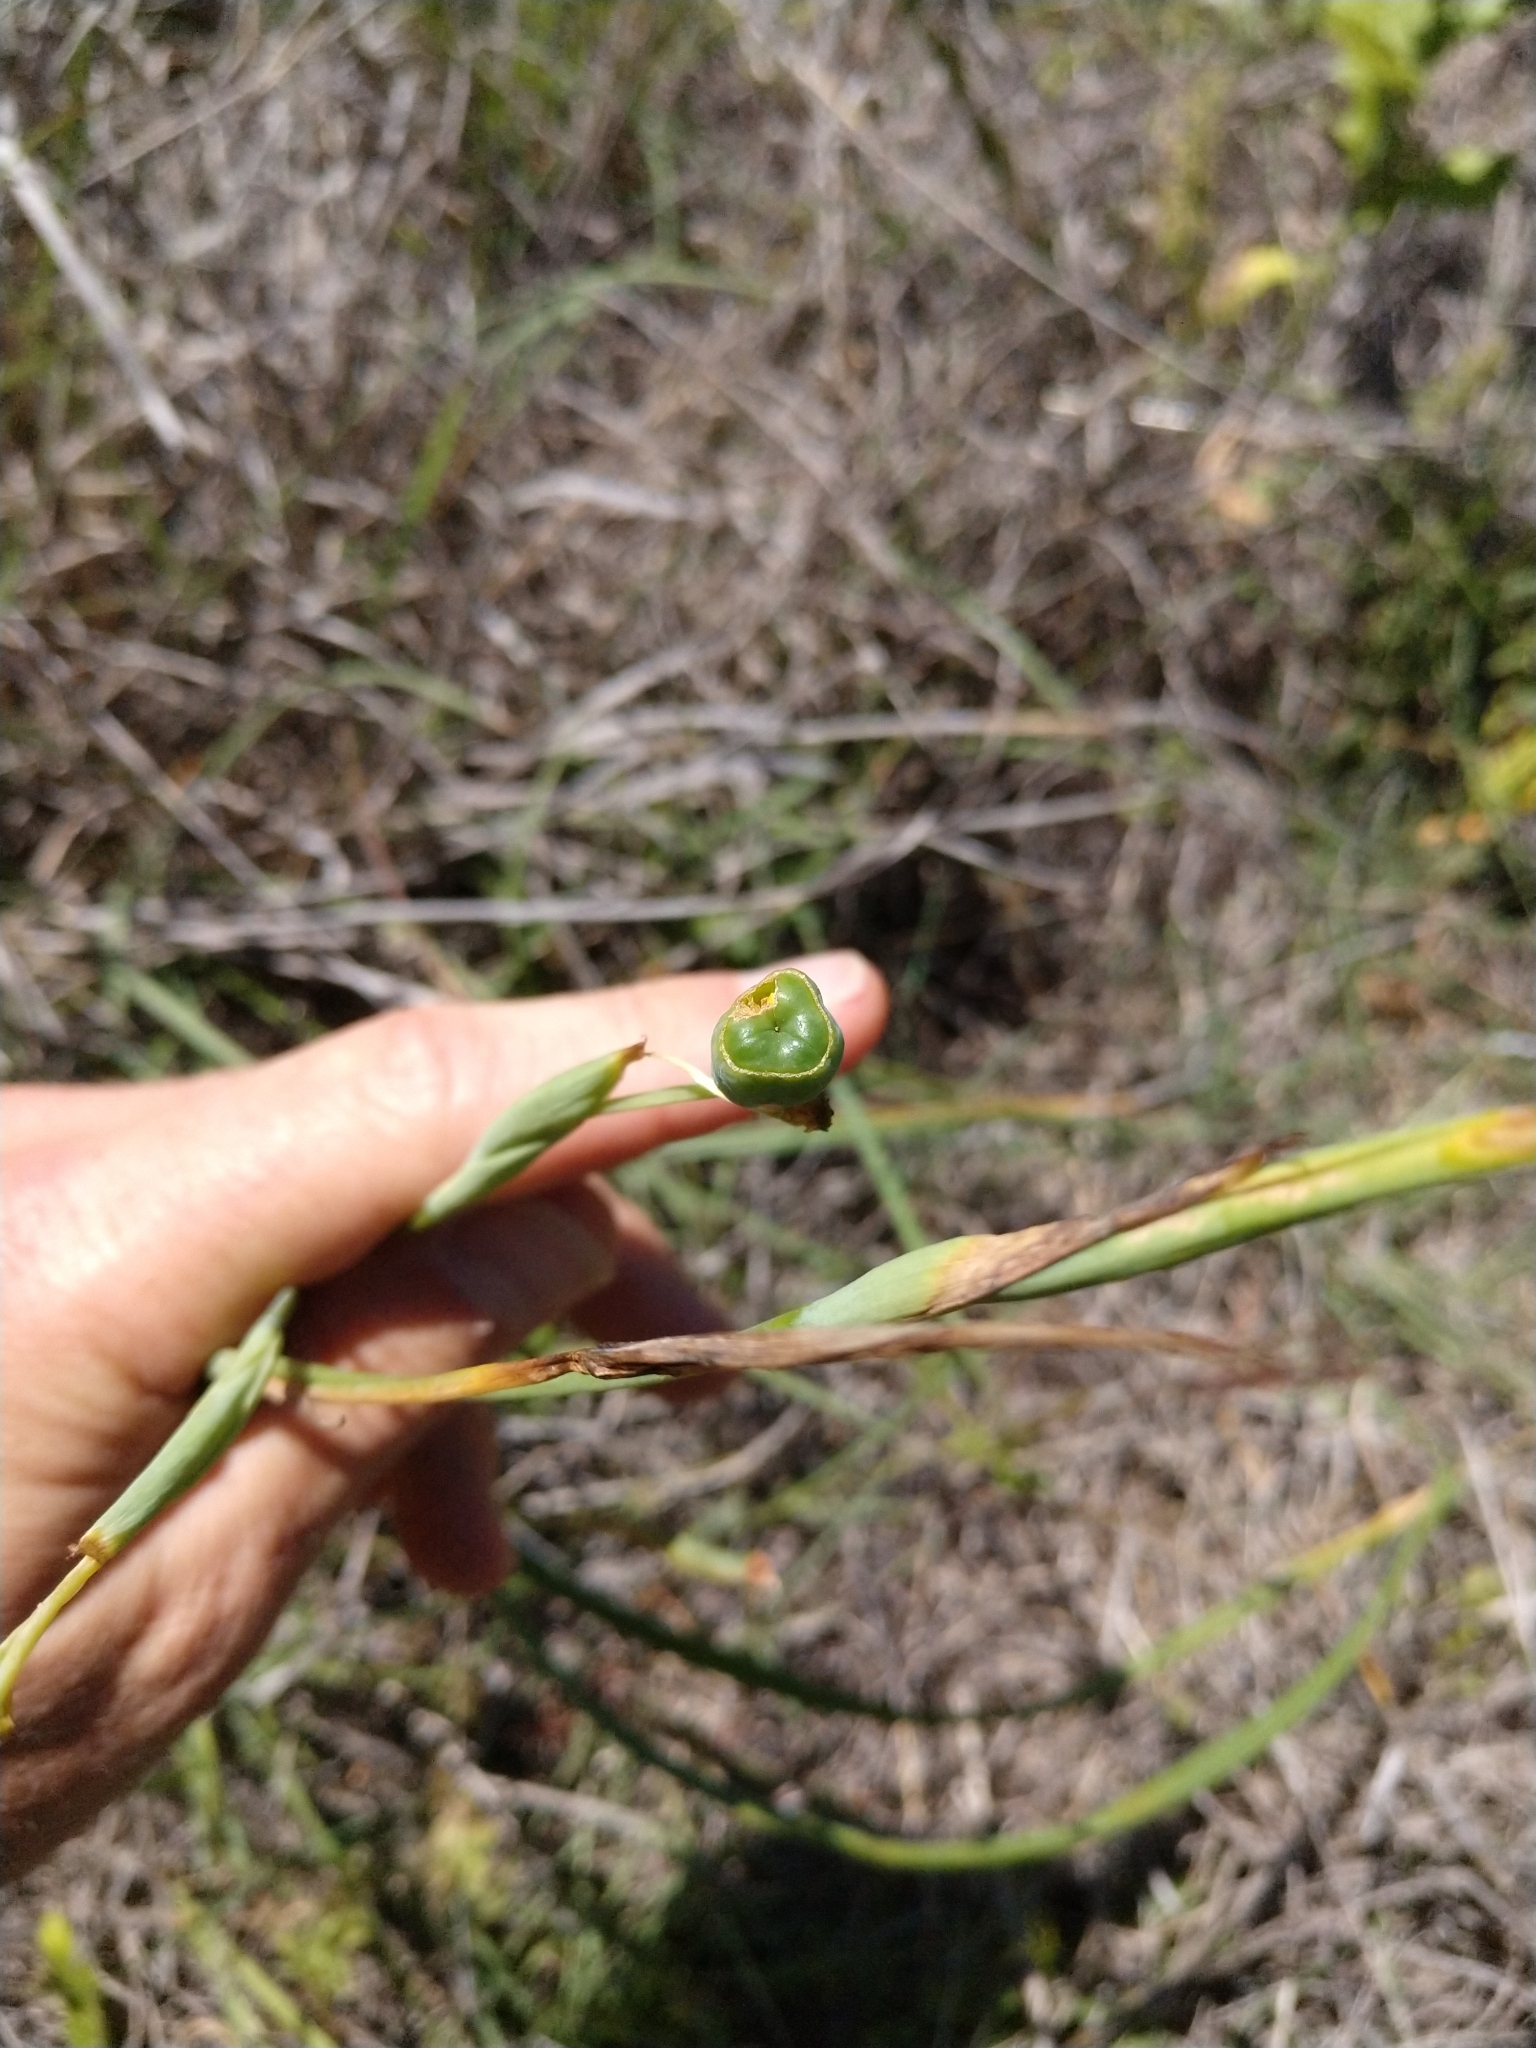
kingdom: Plantae
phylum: Tracheophyta
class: Liliopsida
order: Asparagales
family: Iridaceae
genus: Nemastylis
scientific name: Nemastylis geminiflora
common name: Prairie celestial
